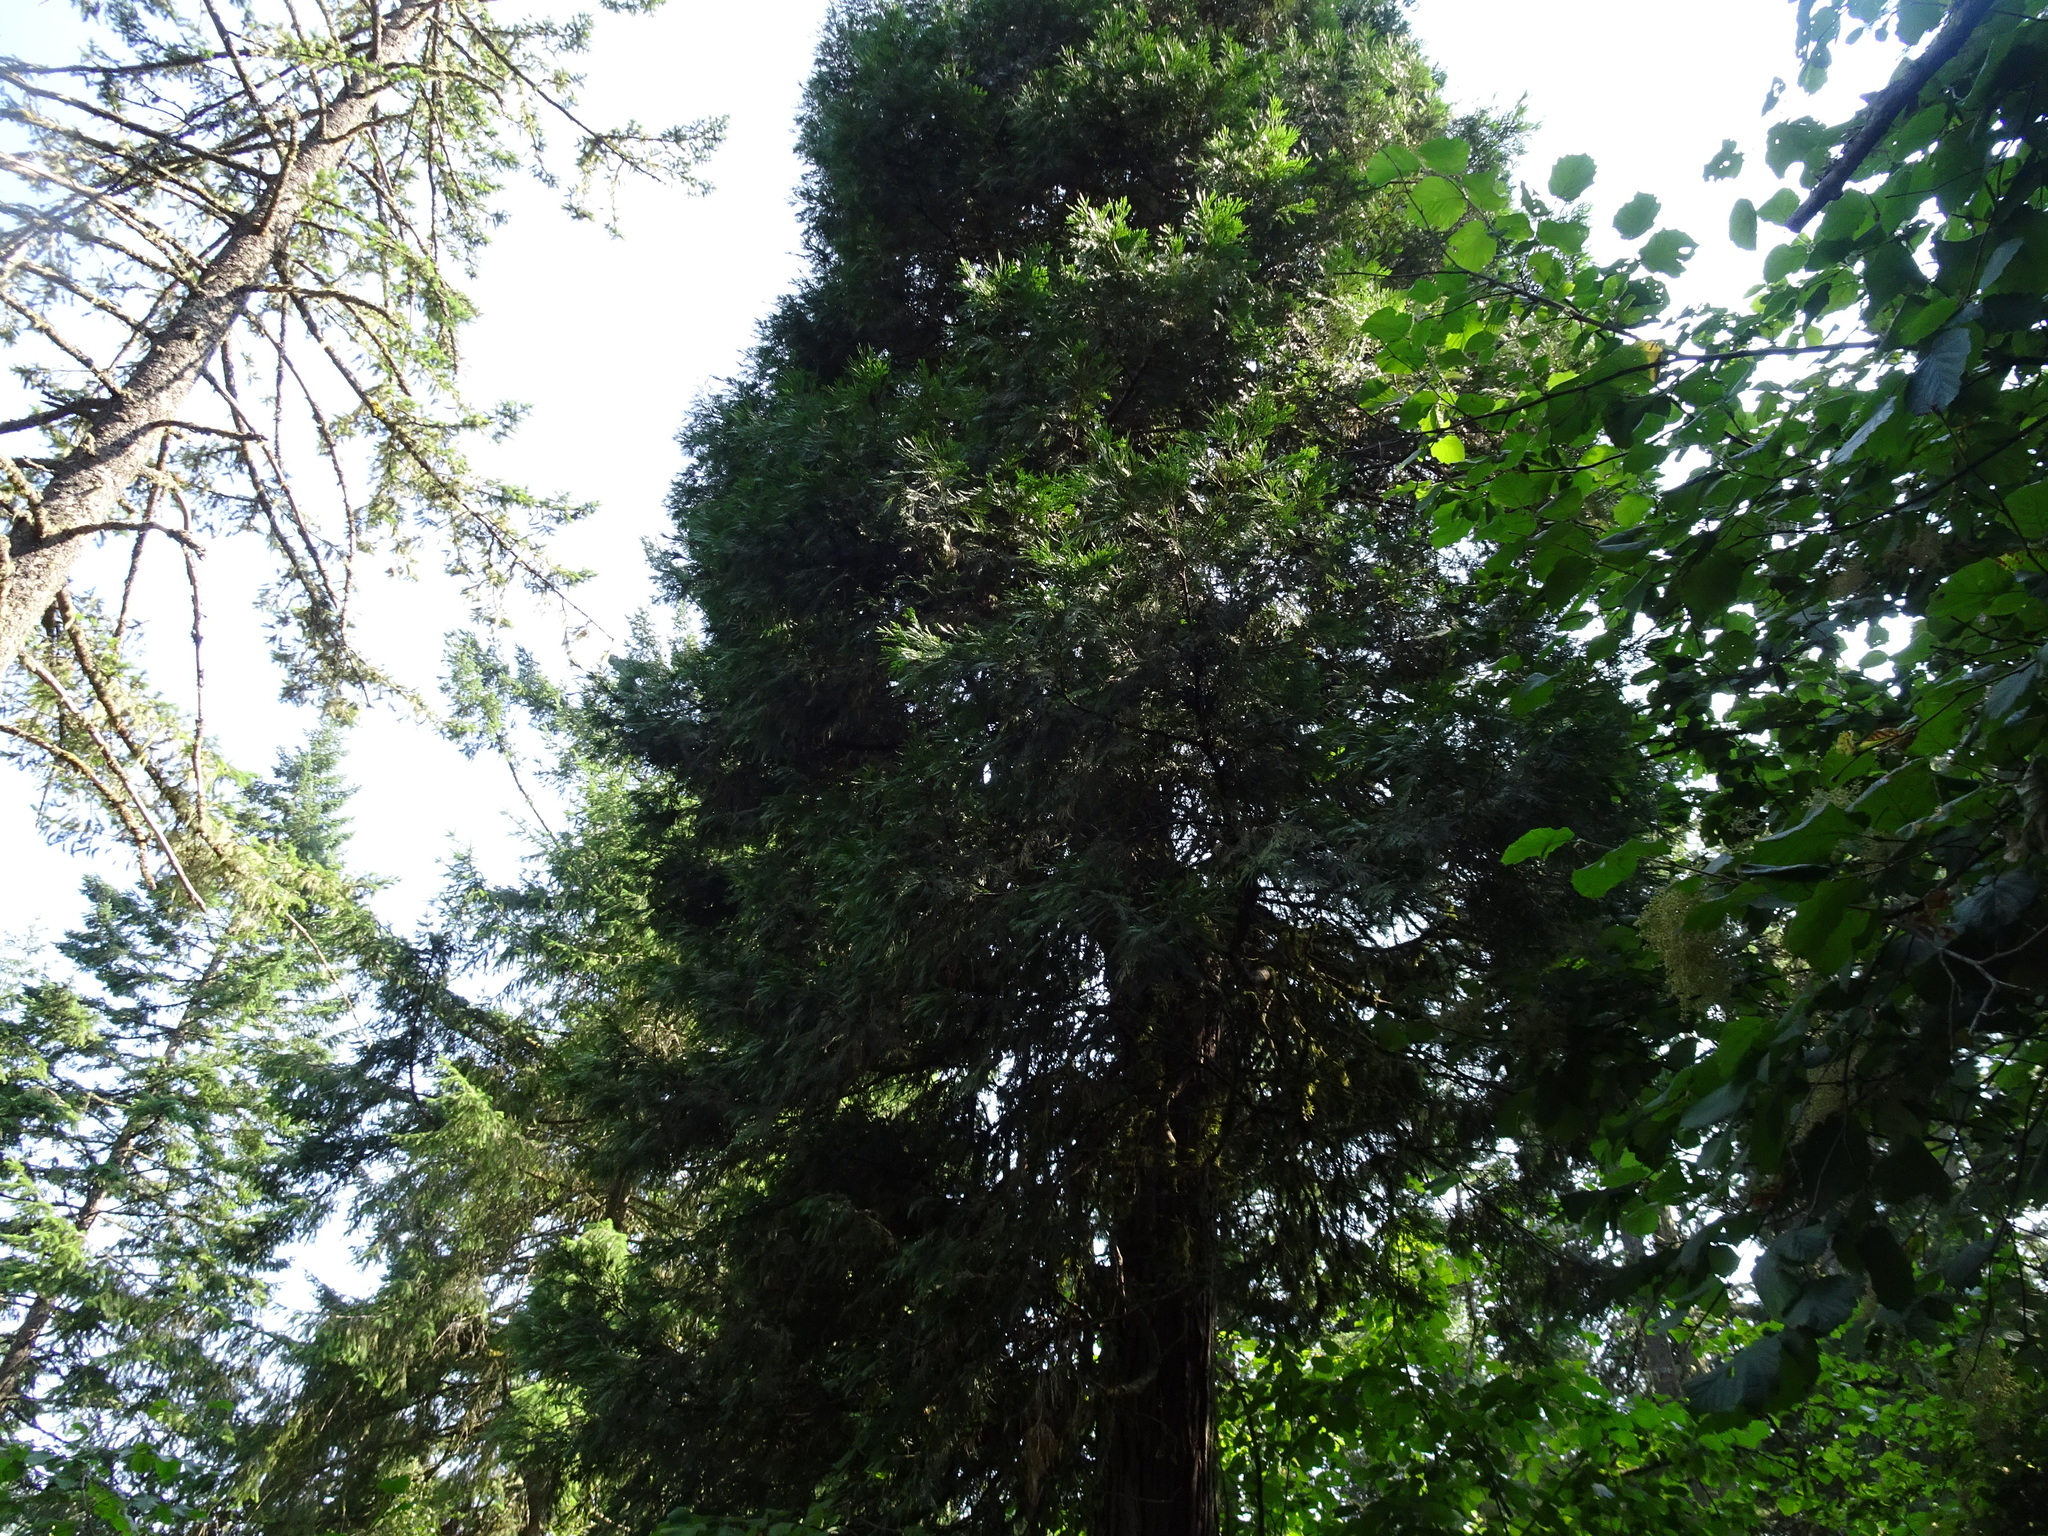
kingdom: Plantae
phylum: Tracheophyta
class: Pinopsida
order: Pinales
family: Cupressaceae
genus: Calocedrus
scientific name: Calocedrus decurrens
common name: Californian incense-cedar
